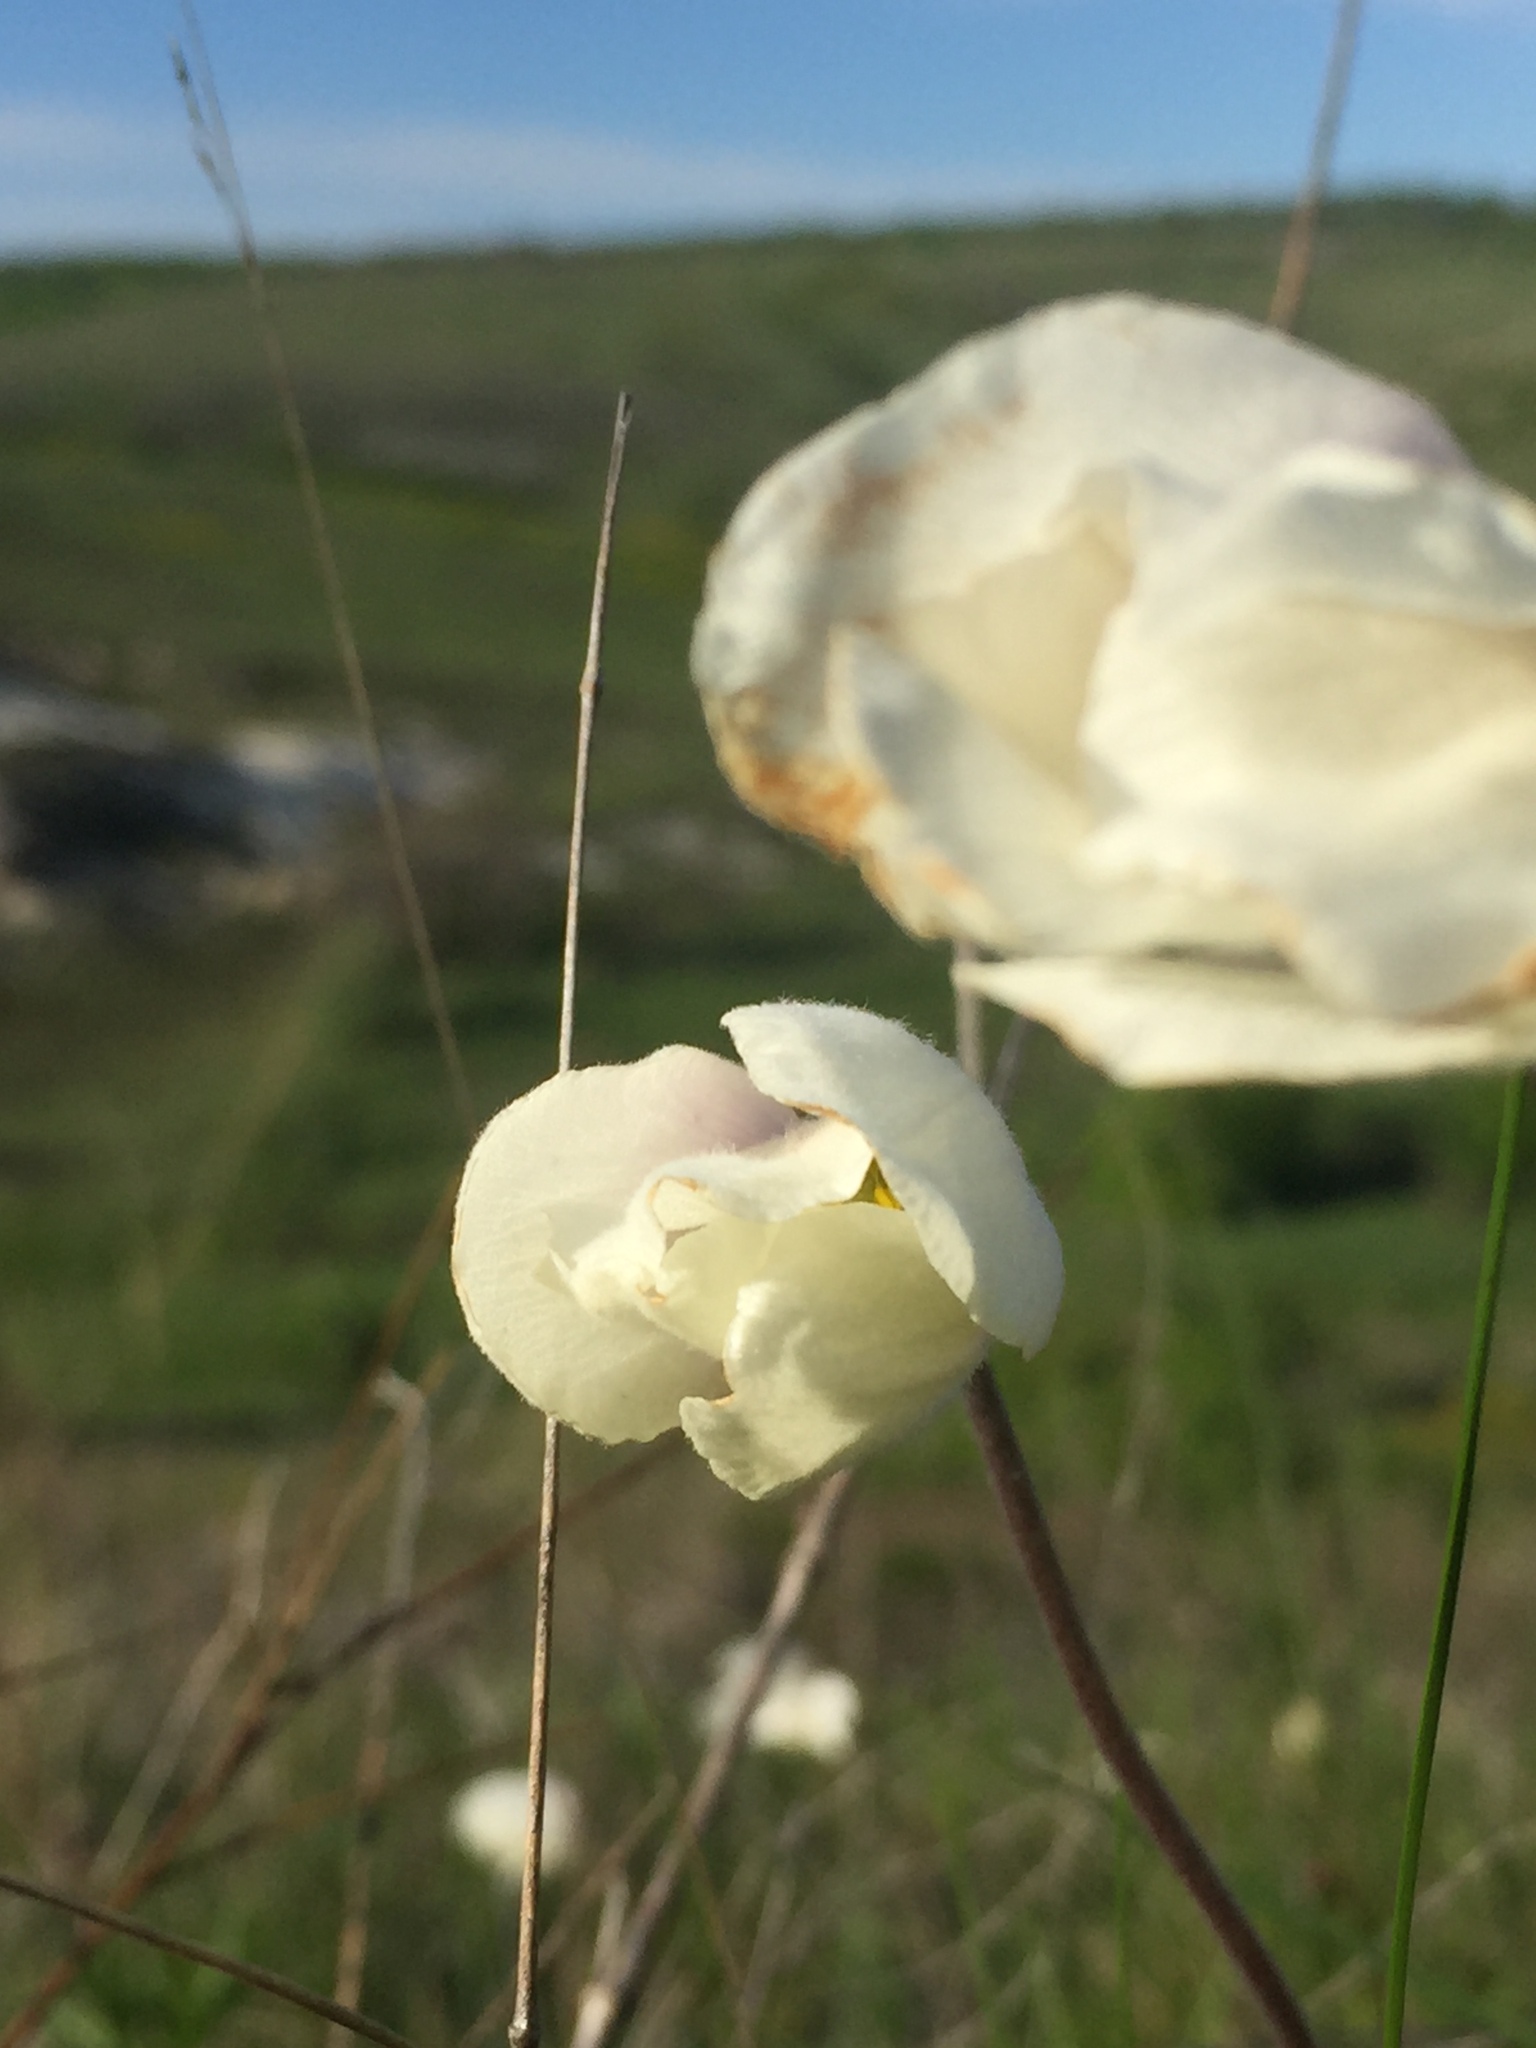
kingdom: Plantae
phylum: Tracheophyta
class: Magnoliopsida
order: Ranunculales
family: Ranunculaceae
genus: Anemone
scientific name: Anemone sylvestris
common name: Snowdrop anemone
